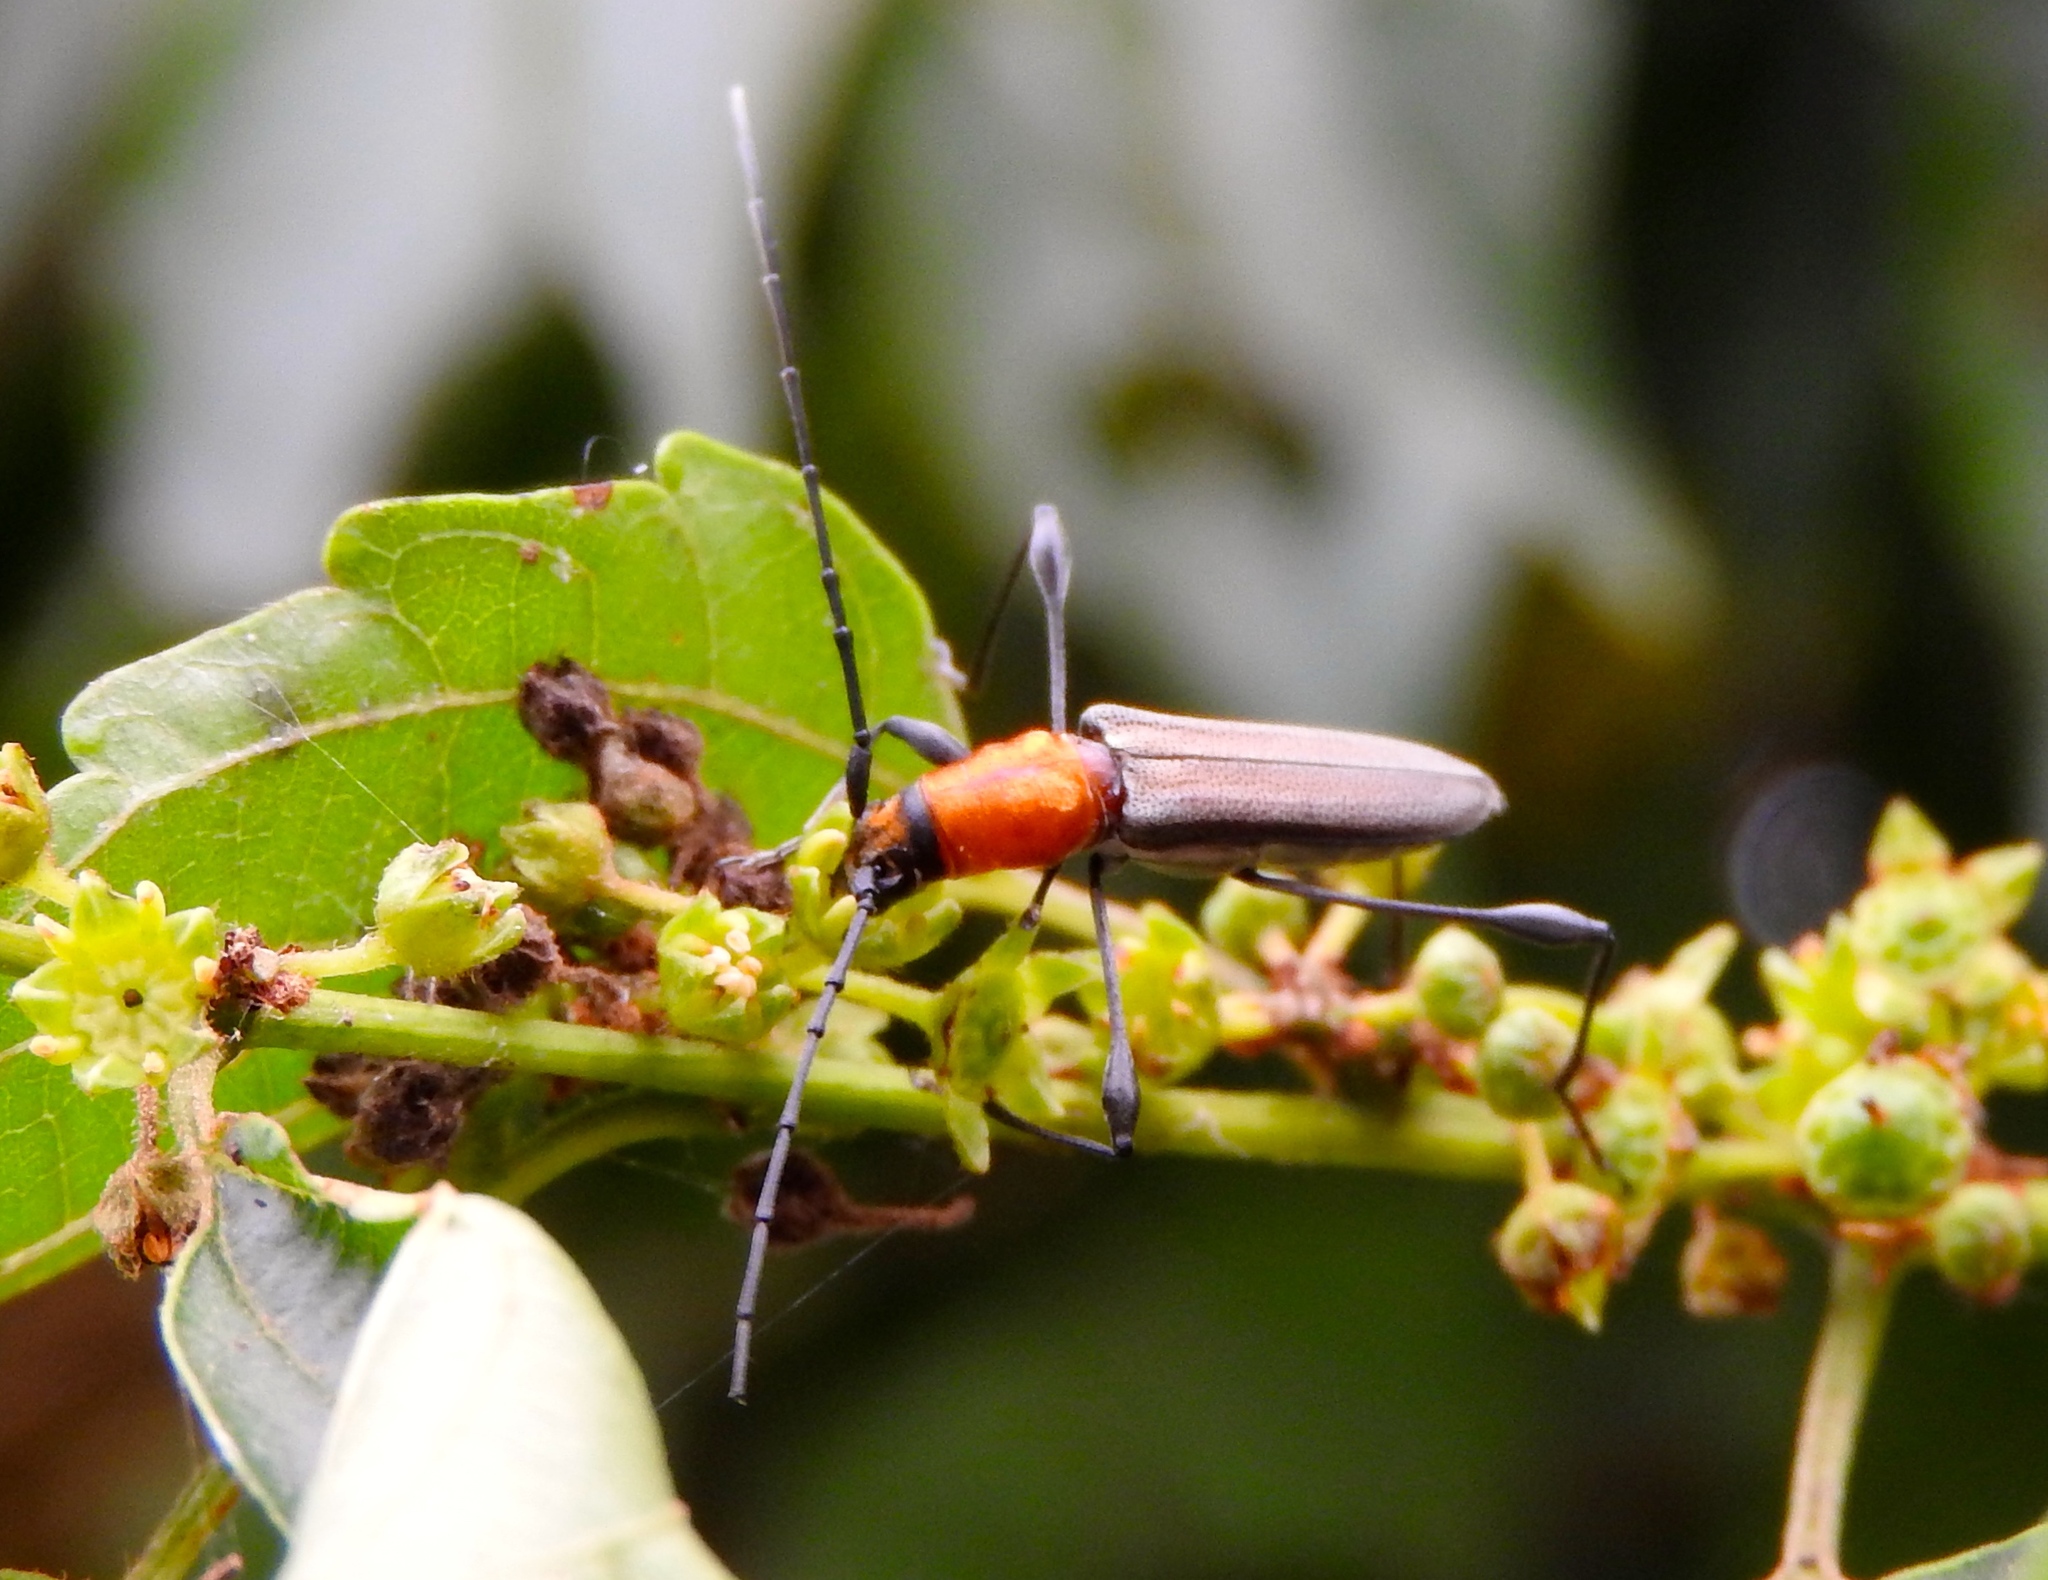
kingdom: Animalia
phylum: Arthropoda
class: Insecta
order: Coleoptera
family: Cerambycidae
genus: Rhopalophora
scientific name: Rhopalophora
